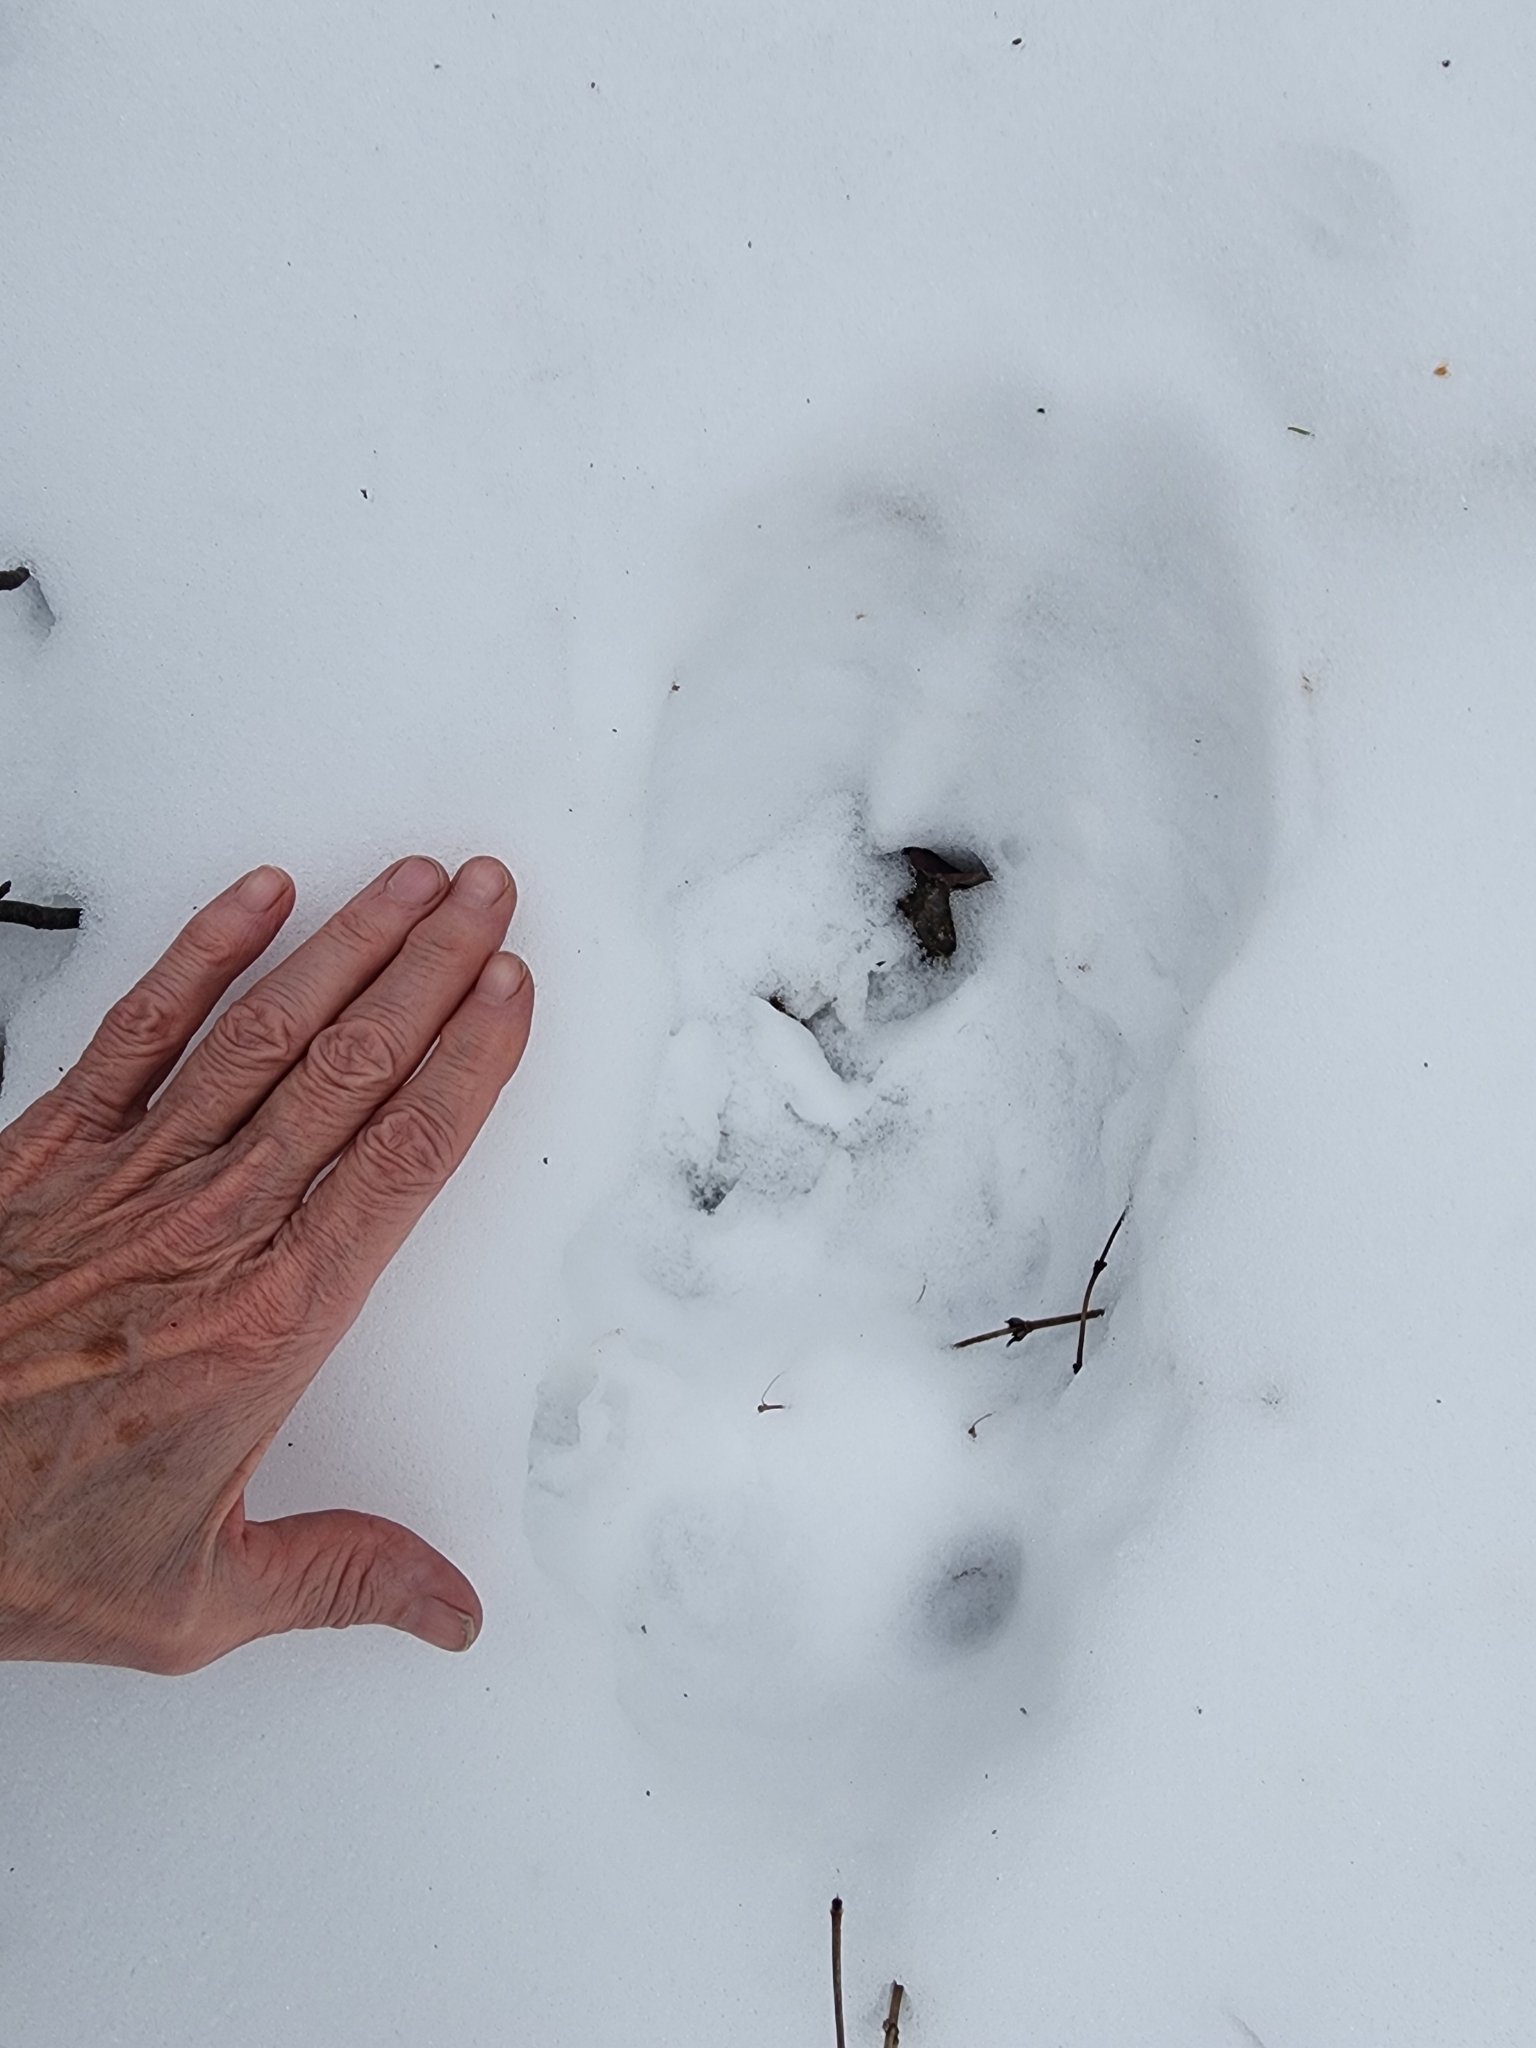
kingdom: Animalia
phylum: Chordata
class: Mammalia
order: Artiodactyla
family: Cervidae
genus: Alces
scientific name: Alces alces
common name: Moose
